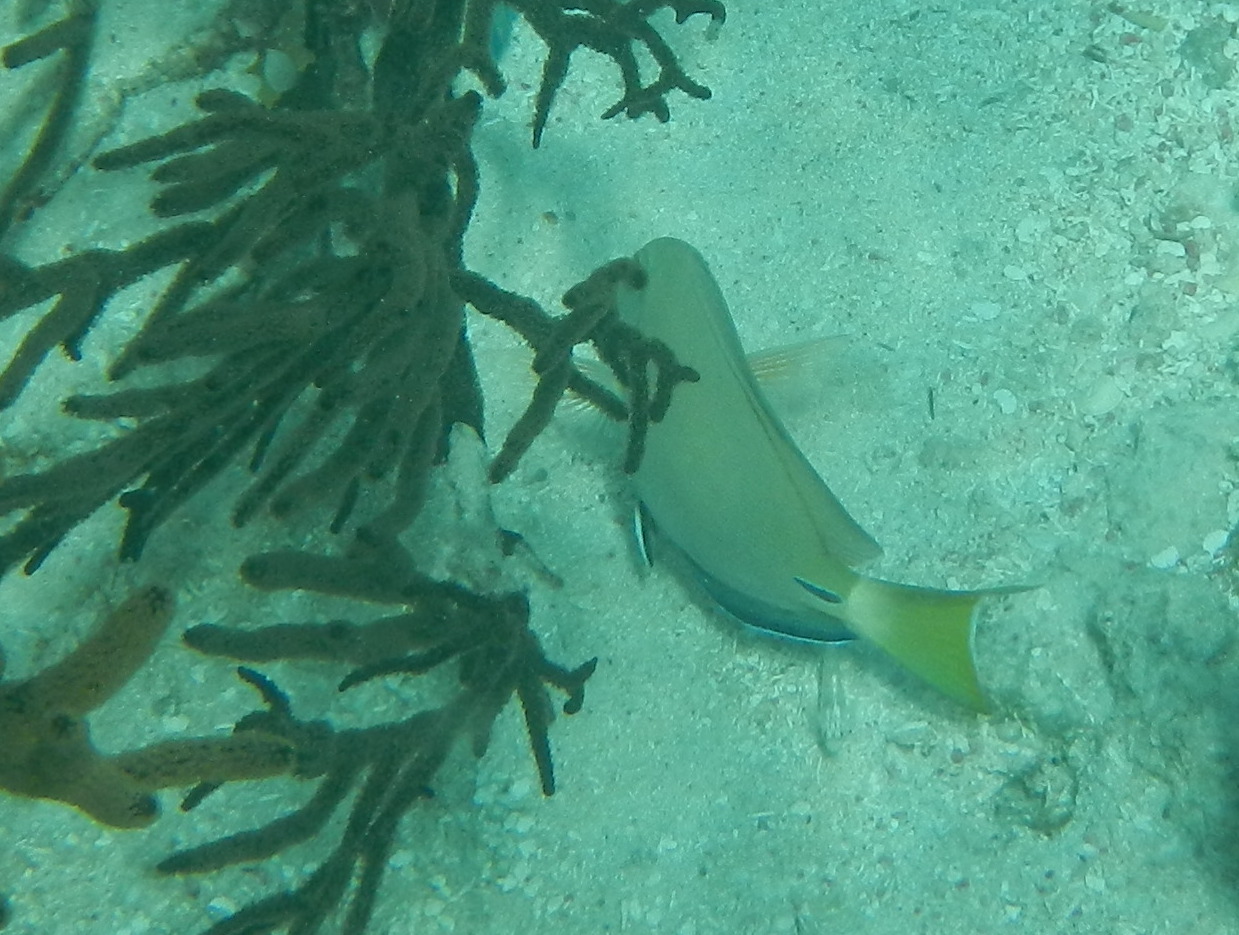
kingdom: Animalia
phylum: Chordata
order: Perciformes
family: Acanthuridae
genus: Acanthurus
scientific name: Acanthurus bahianus
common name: Ocean surgeon
